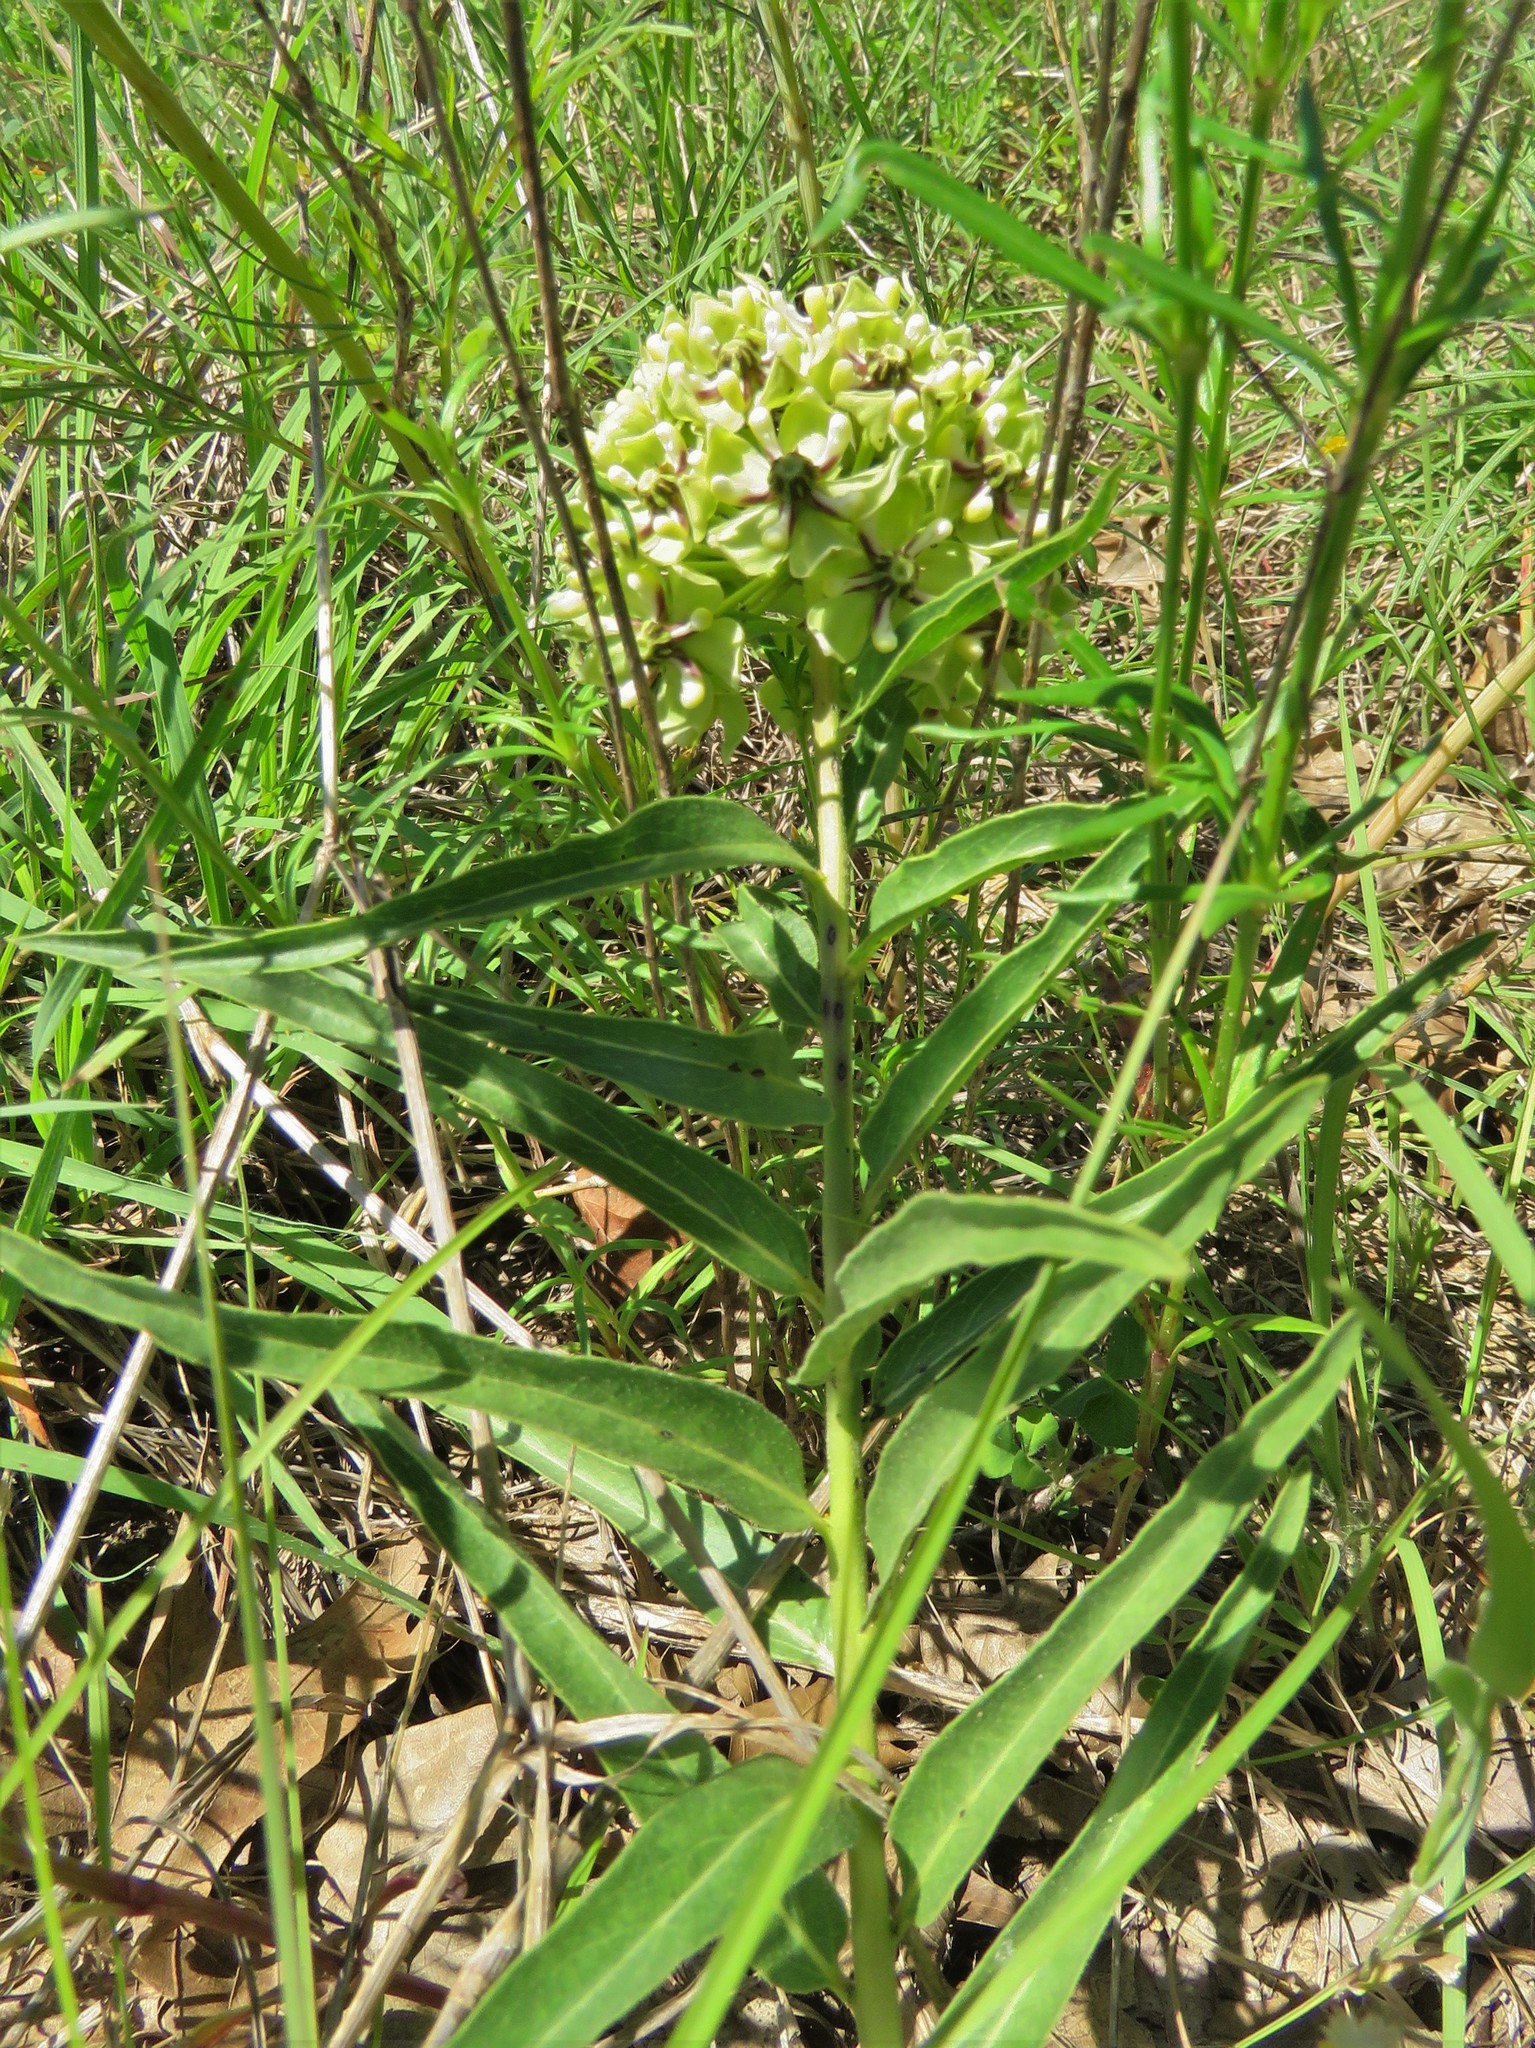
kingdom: Plantae
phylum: Tracheophyta
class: Magnoliopsida
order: Gentianales
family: Apocynaceae
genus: Asclepias
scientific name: Asclepias asperula
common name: Antelope horns
